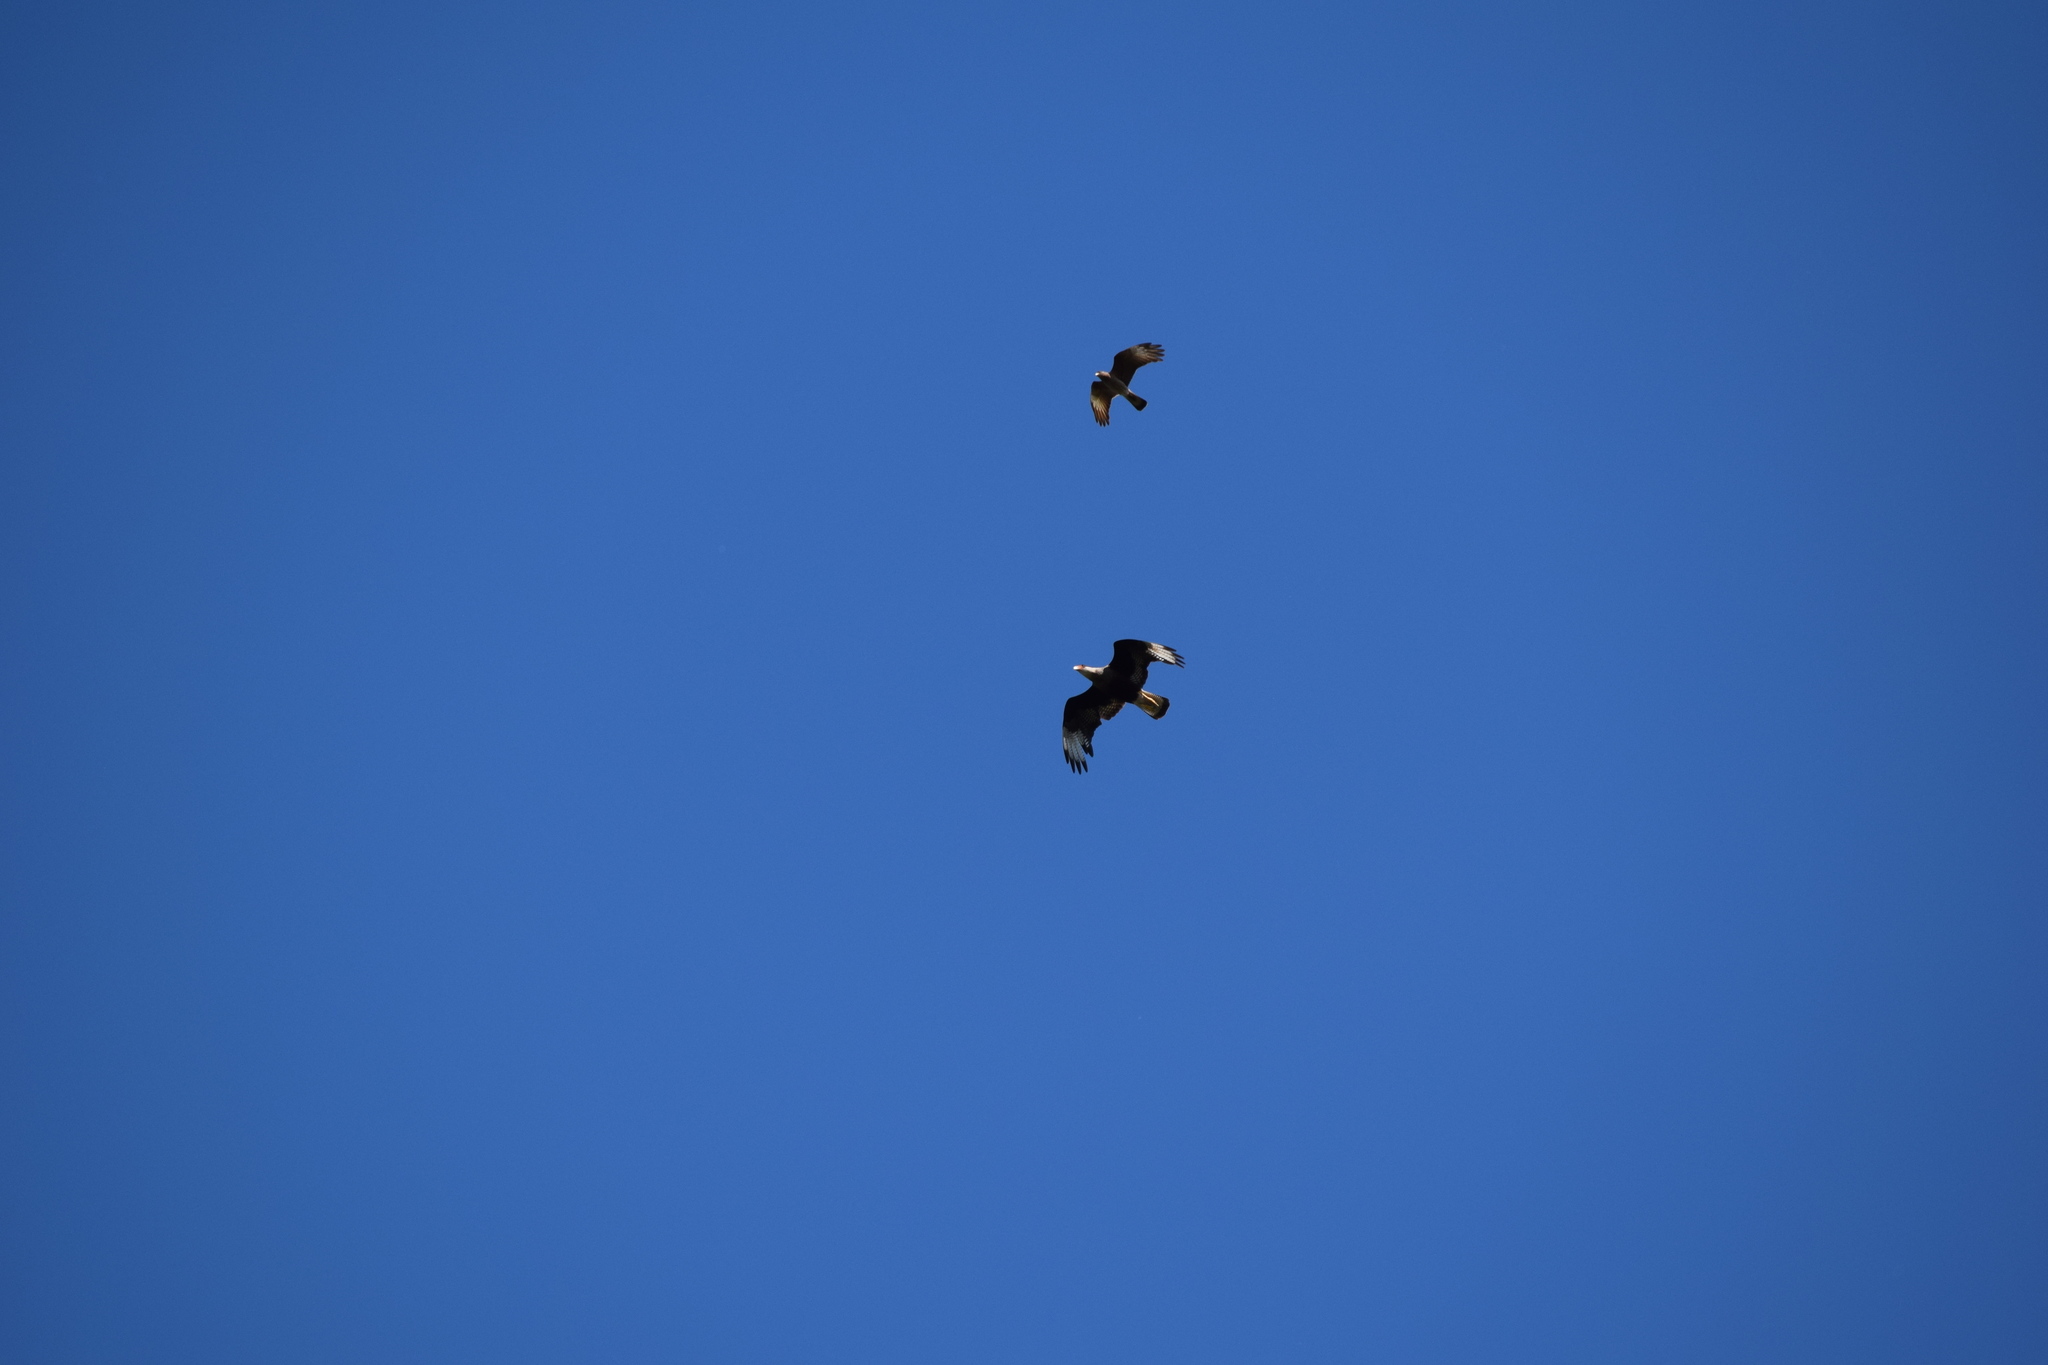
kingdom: Animalia
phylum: Chordata
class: Aves
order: Falconiformes
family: Falconidae
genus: Caracara
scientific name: Caracara plancus
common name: Southern caracara
